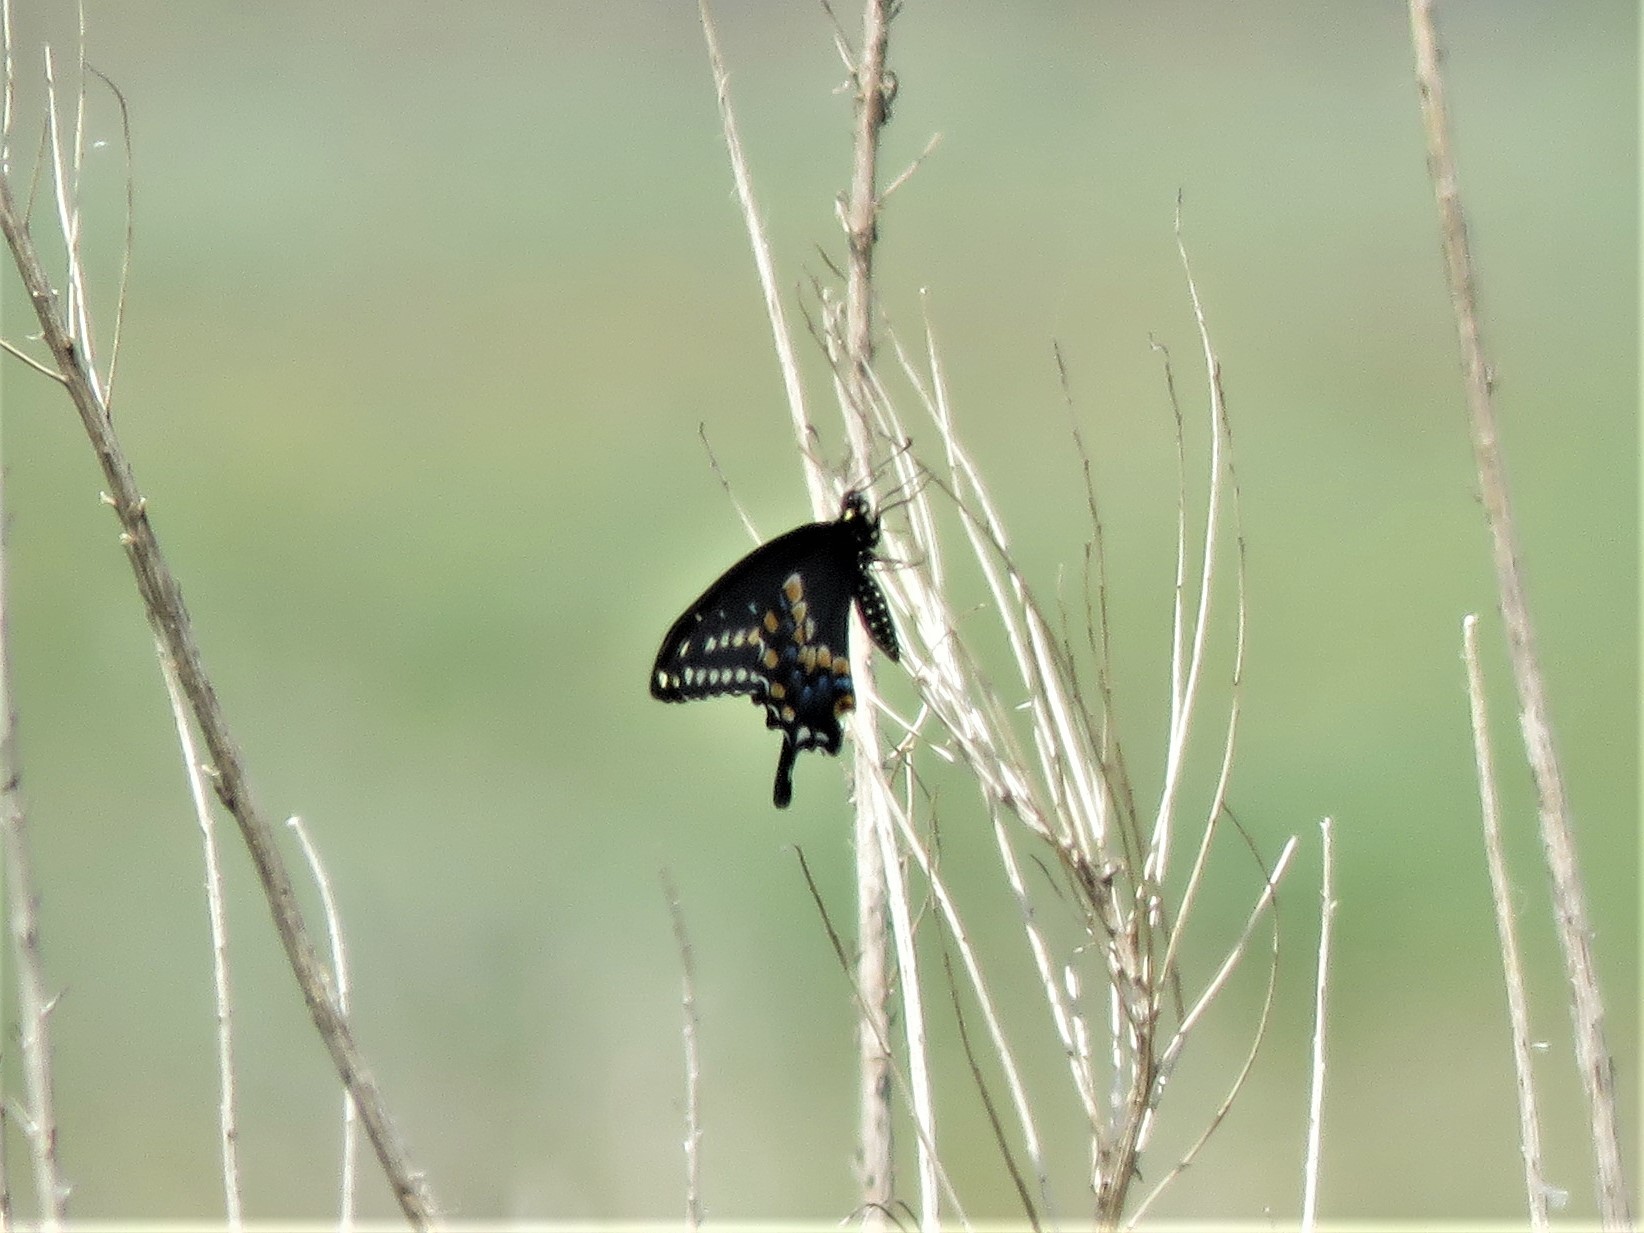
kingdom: Animalia
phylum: Arthropoda
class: Insecta
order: Lepidoptera
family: Papilionidae
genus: Papilio
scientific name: Papilio polyxenes
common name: Black swallowtail
